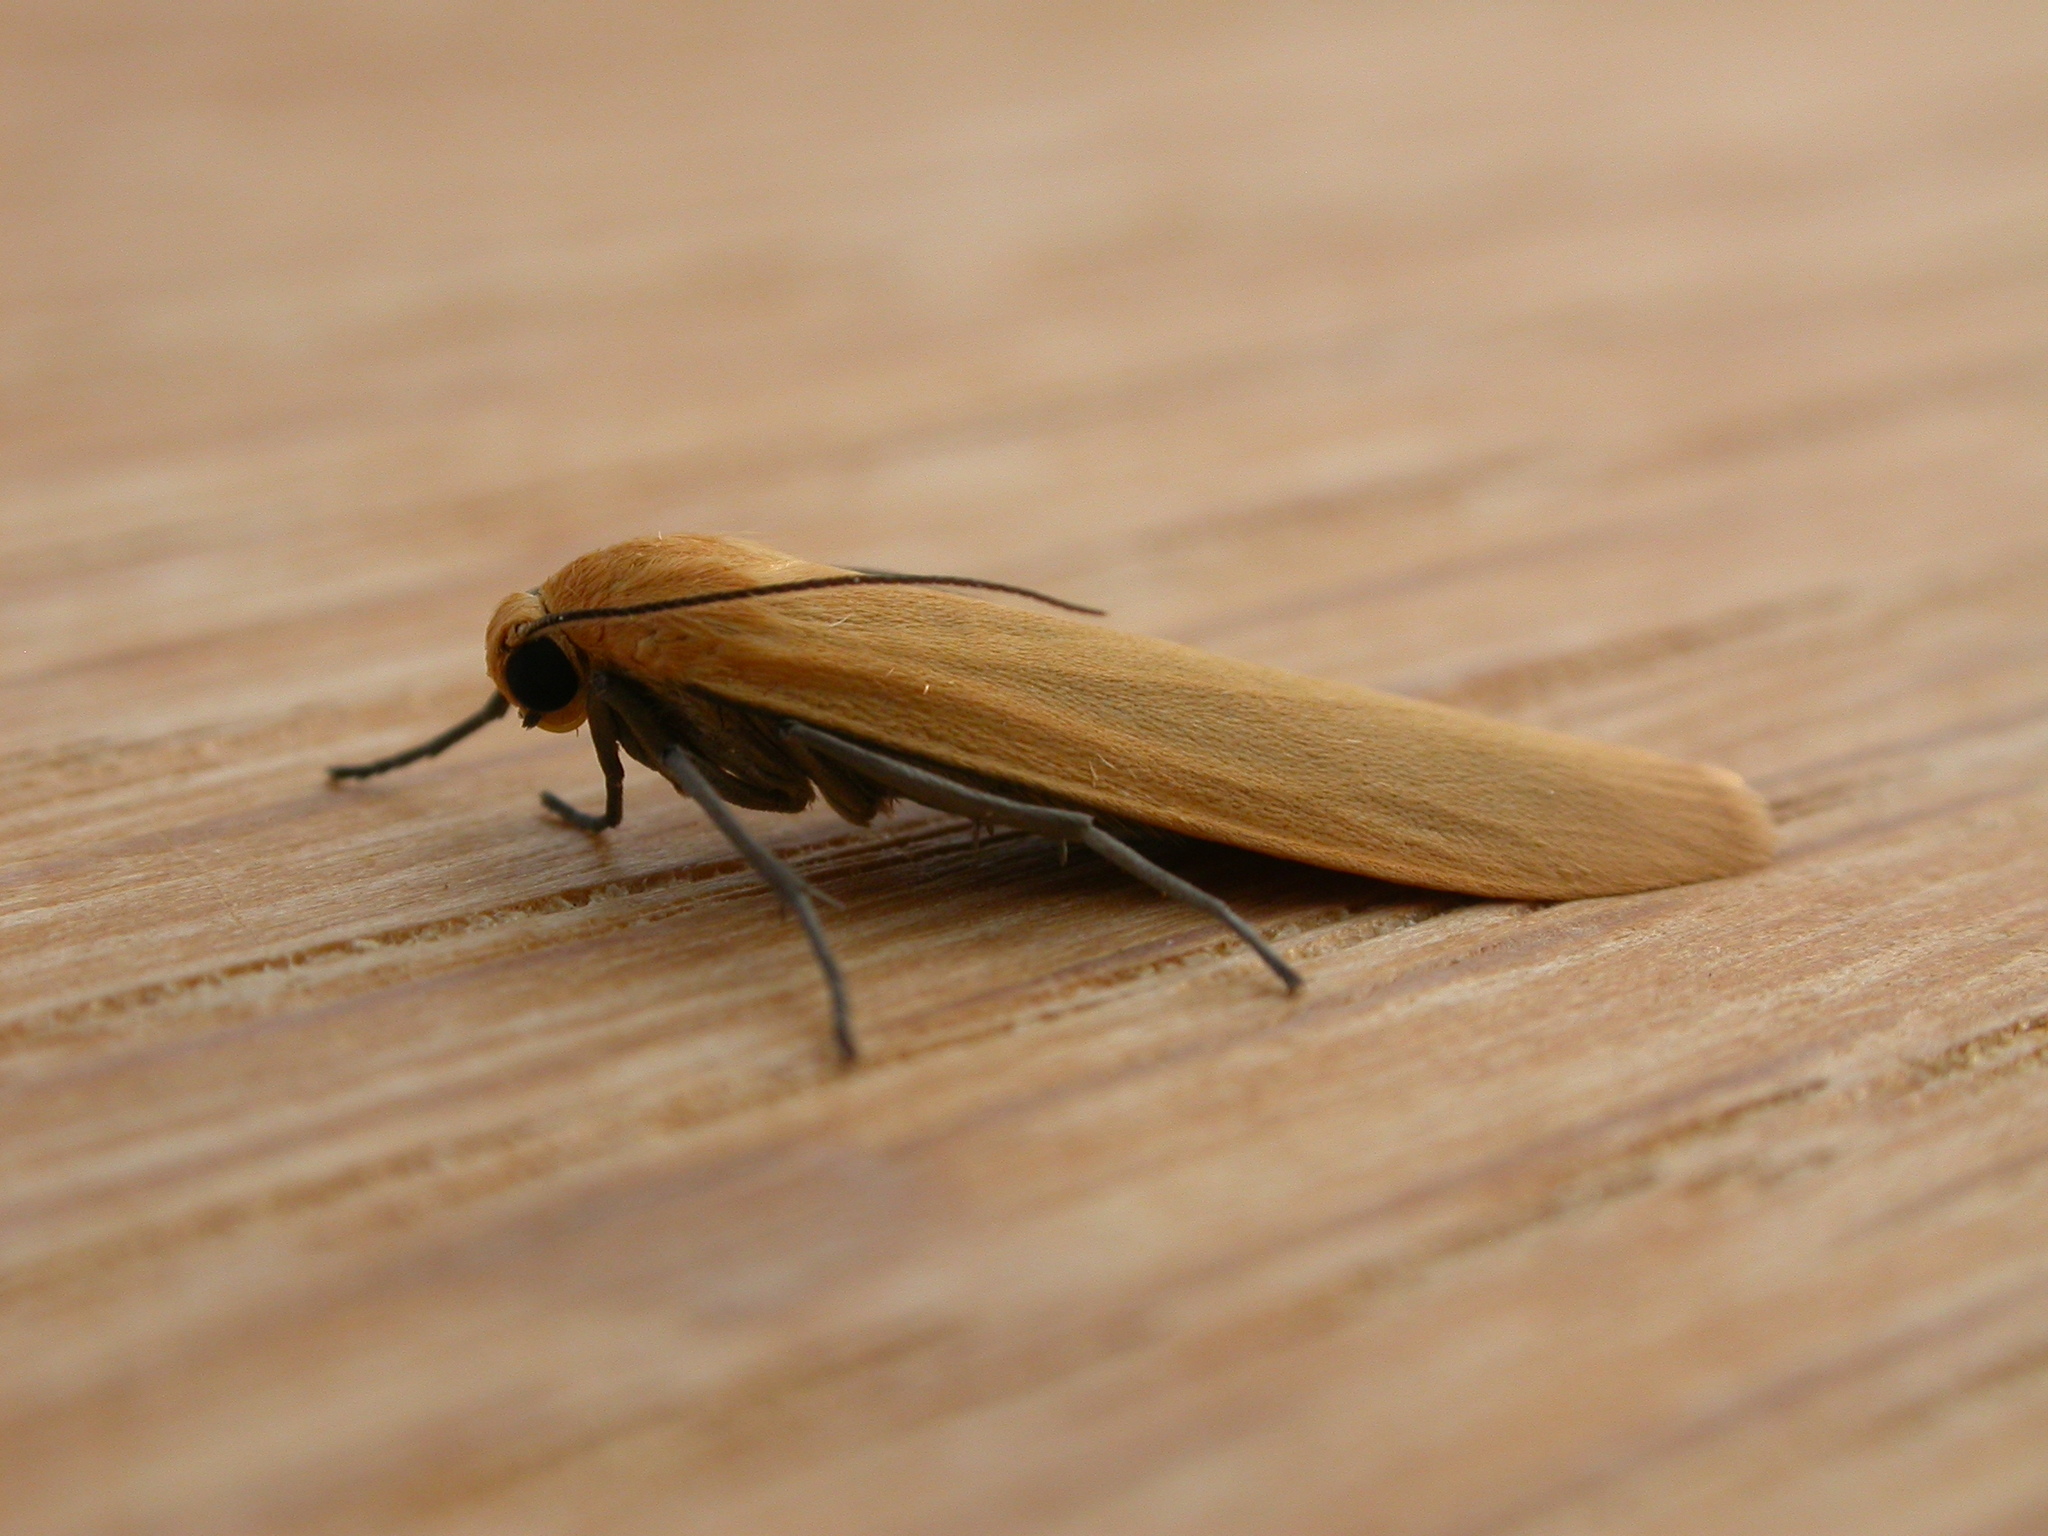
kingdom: Animalia
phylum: Arthropoda
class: Insecta
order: Lepidoptera
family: Erebidae
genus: Wittia
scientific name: Wittia sororcula
